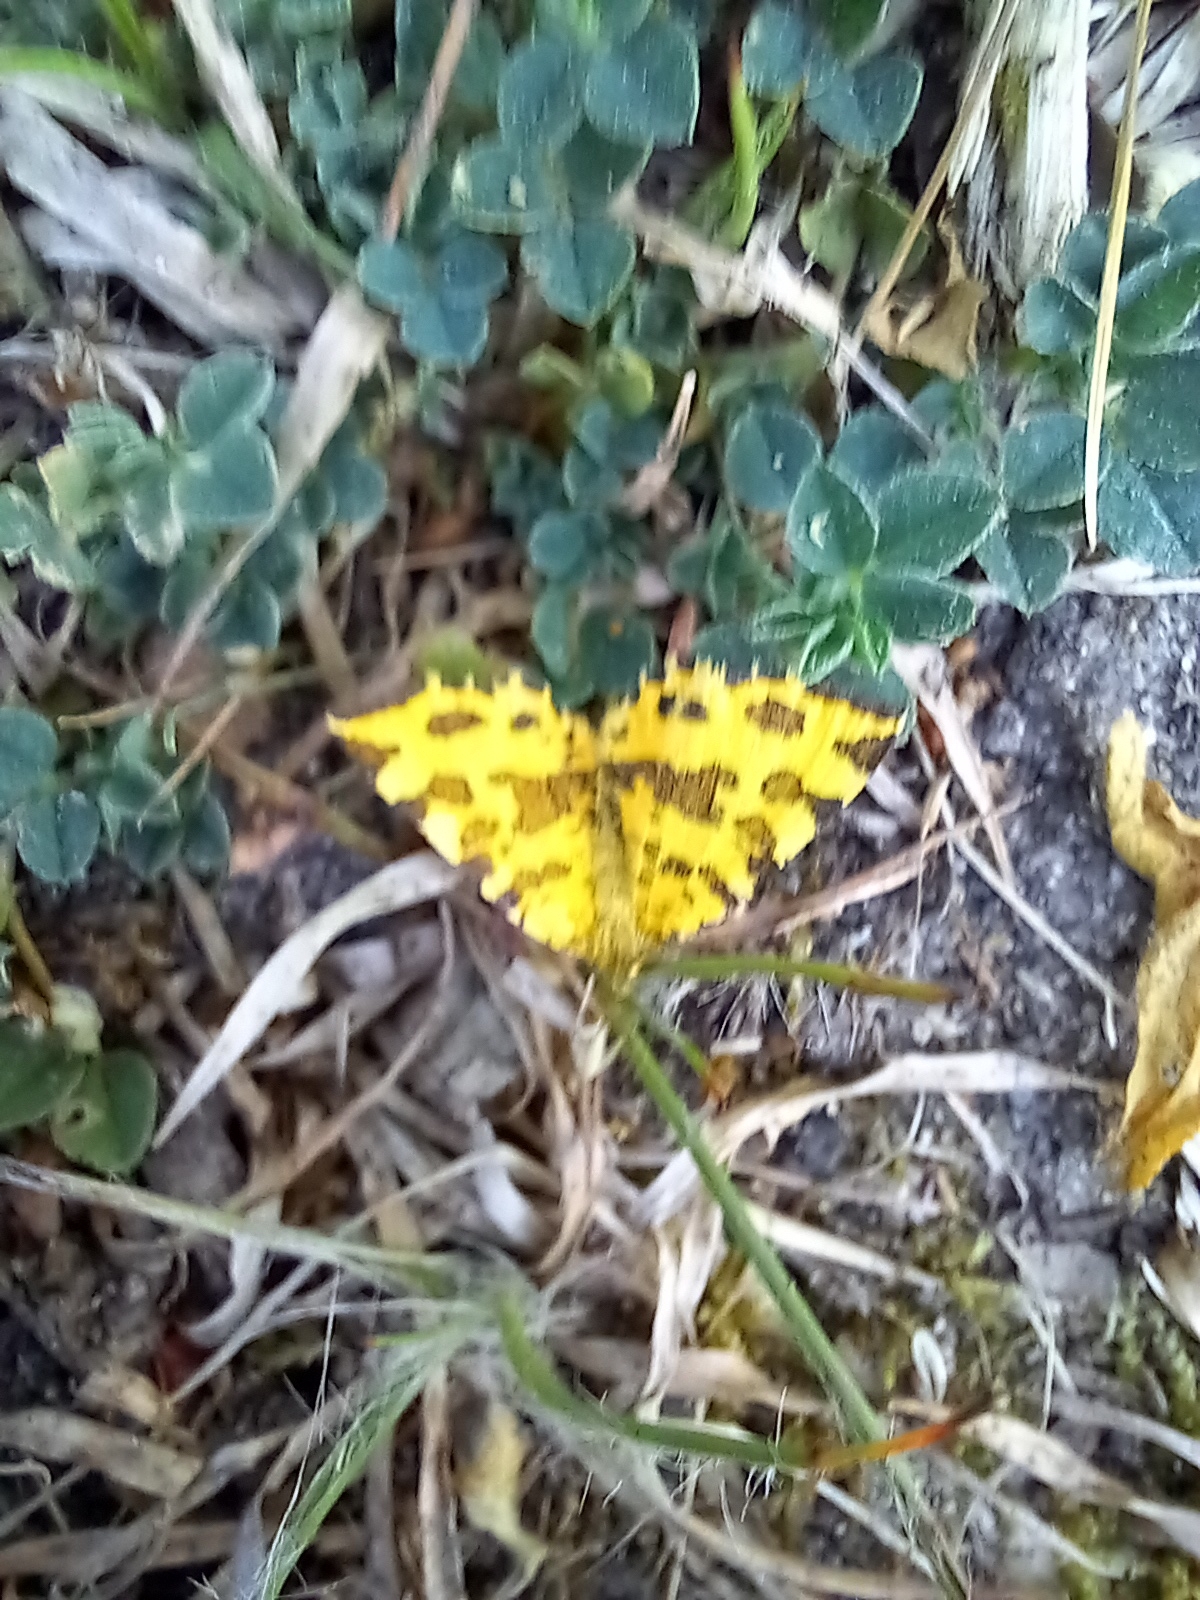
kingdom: Animalia
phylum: Arthropoda
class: Insecta
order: Lepidoptera
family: Geometridae
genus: Pseudopanthera
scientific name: Pseudopanthera macularia
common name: Speckled yellow
